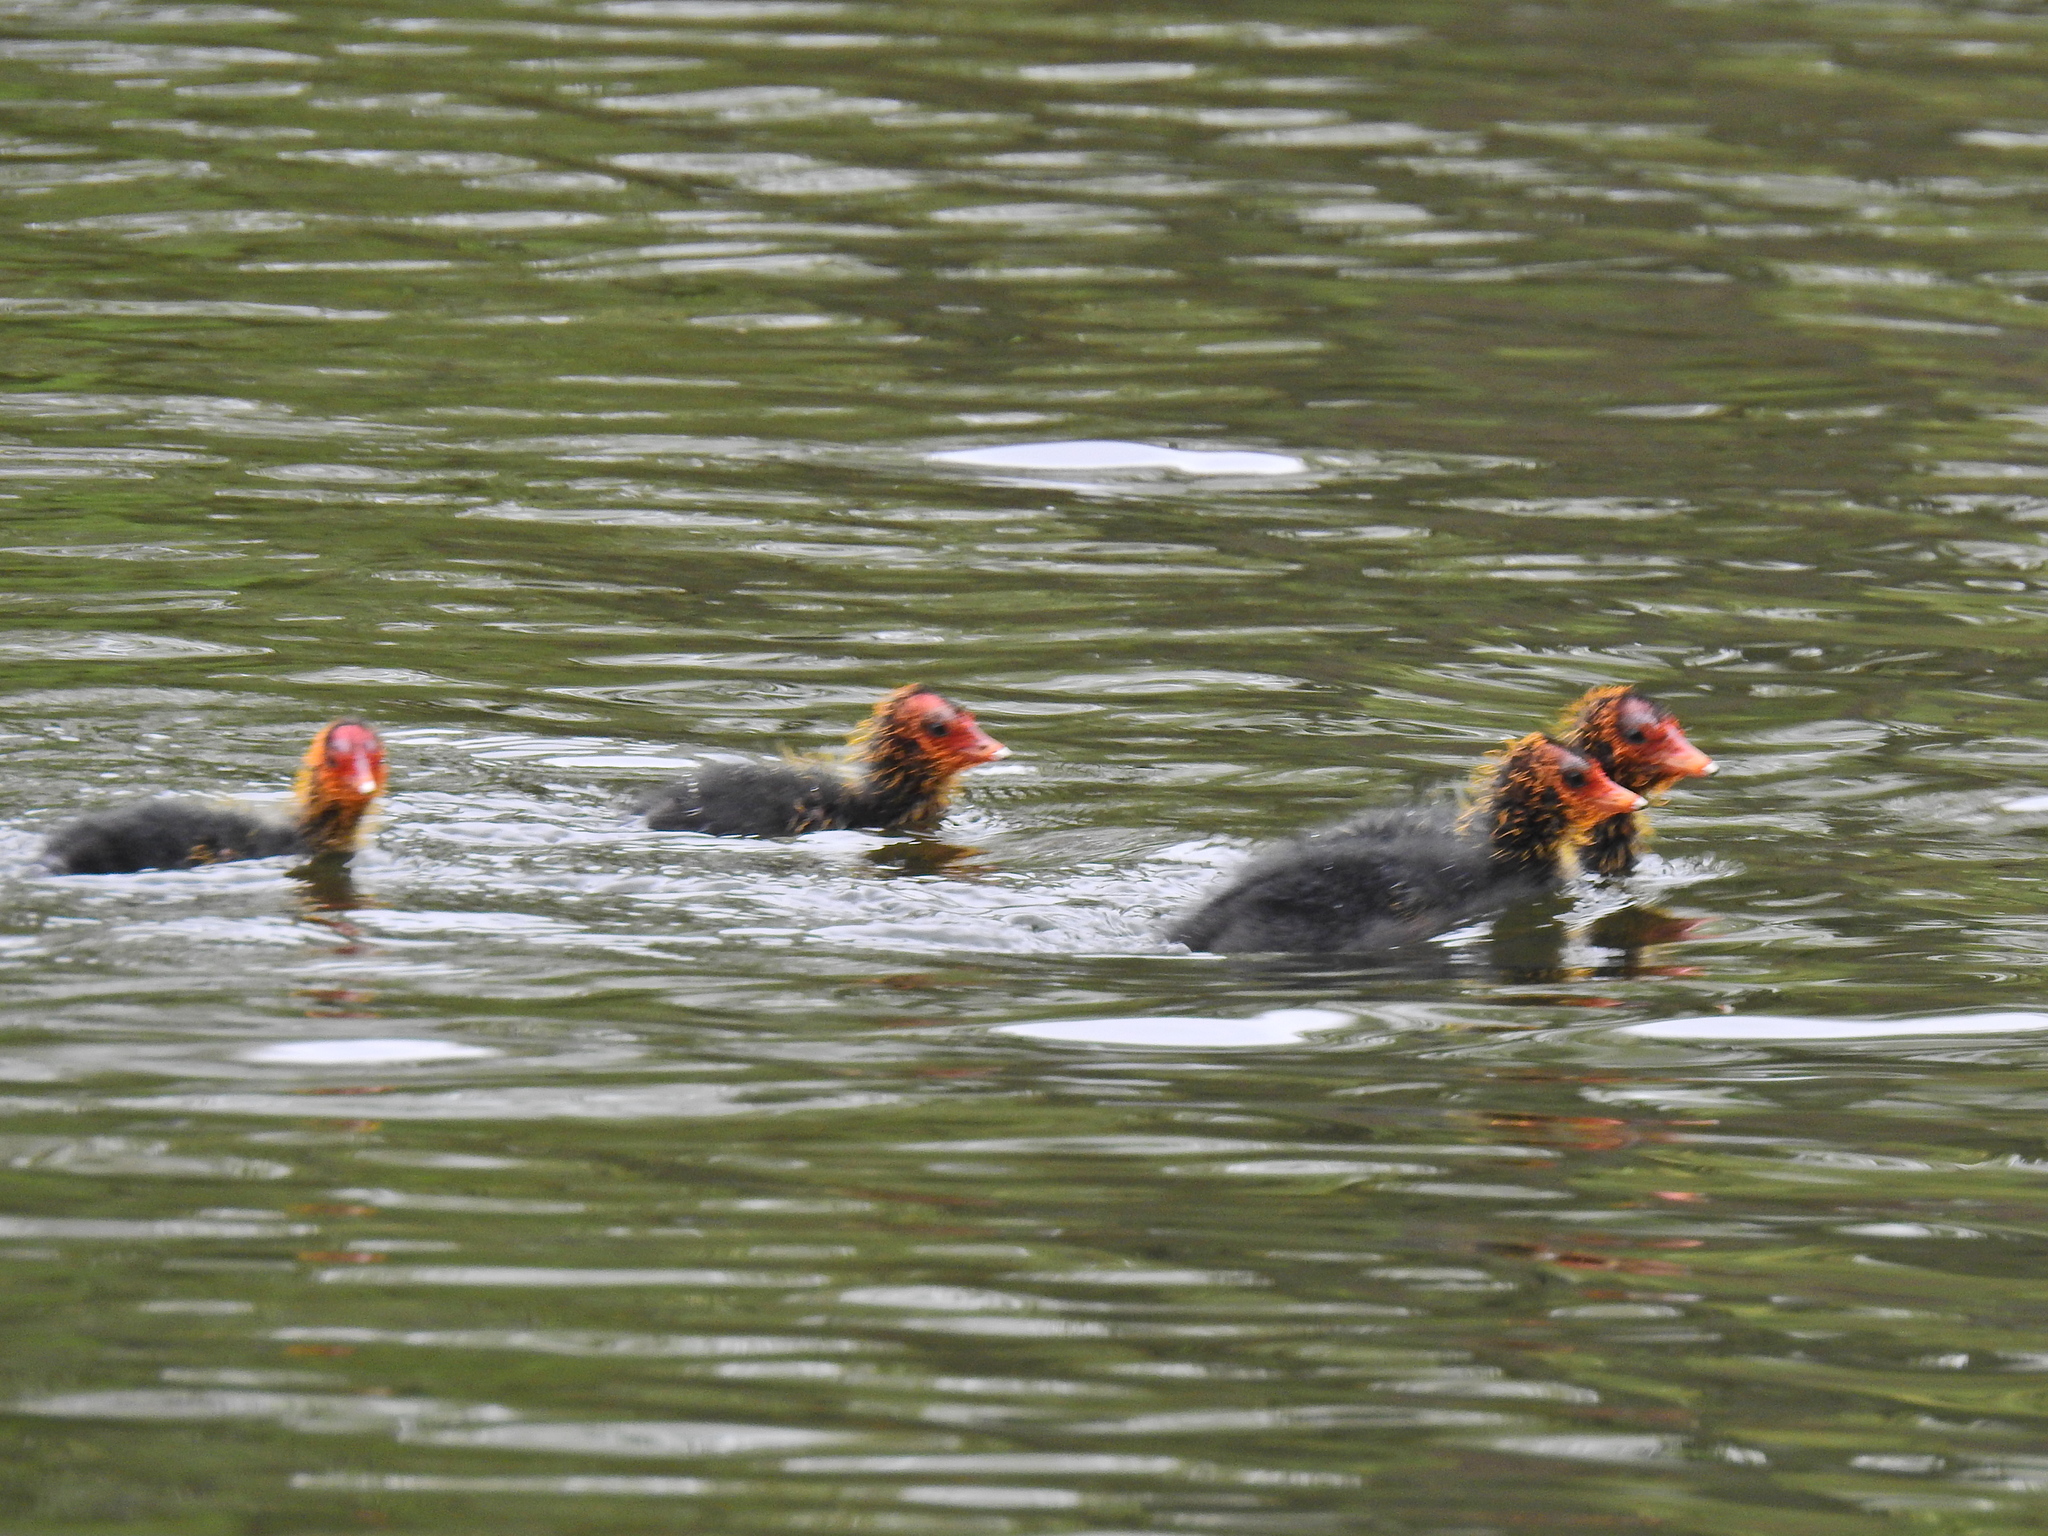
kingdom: Animalia
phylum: Chordata
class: Aves
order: Gruiformes
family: Rallidae
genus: Fulica
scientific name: Fulica atra
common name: Eurasian coot
